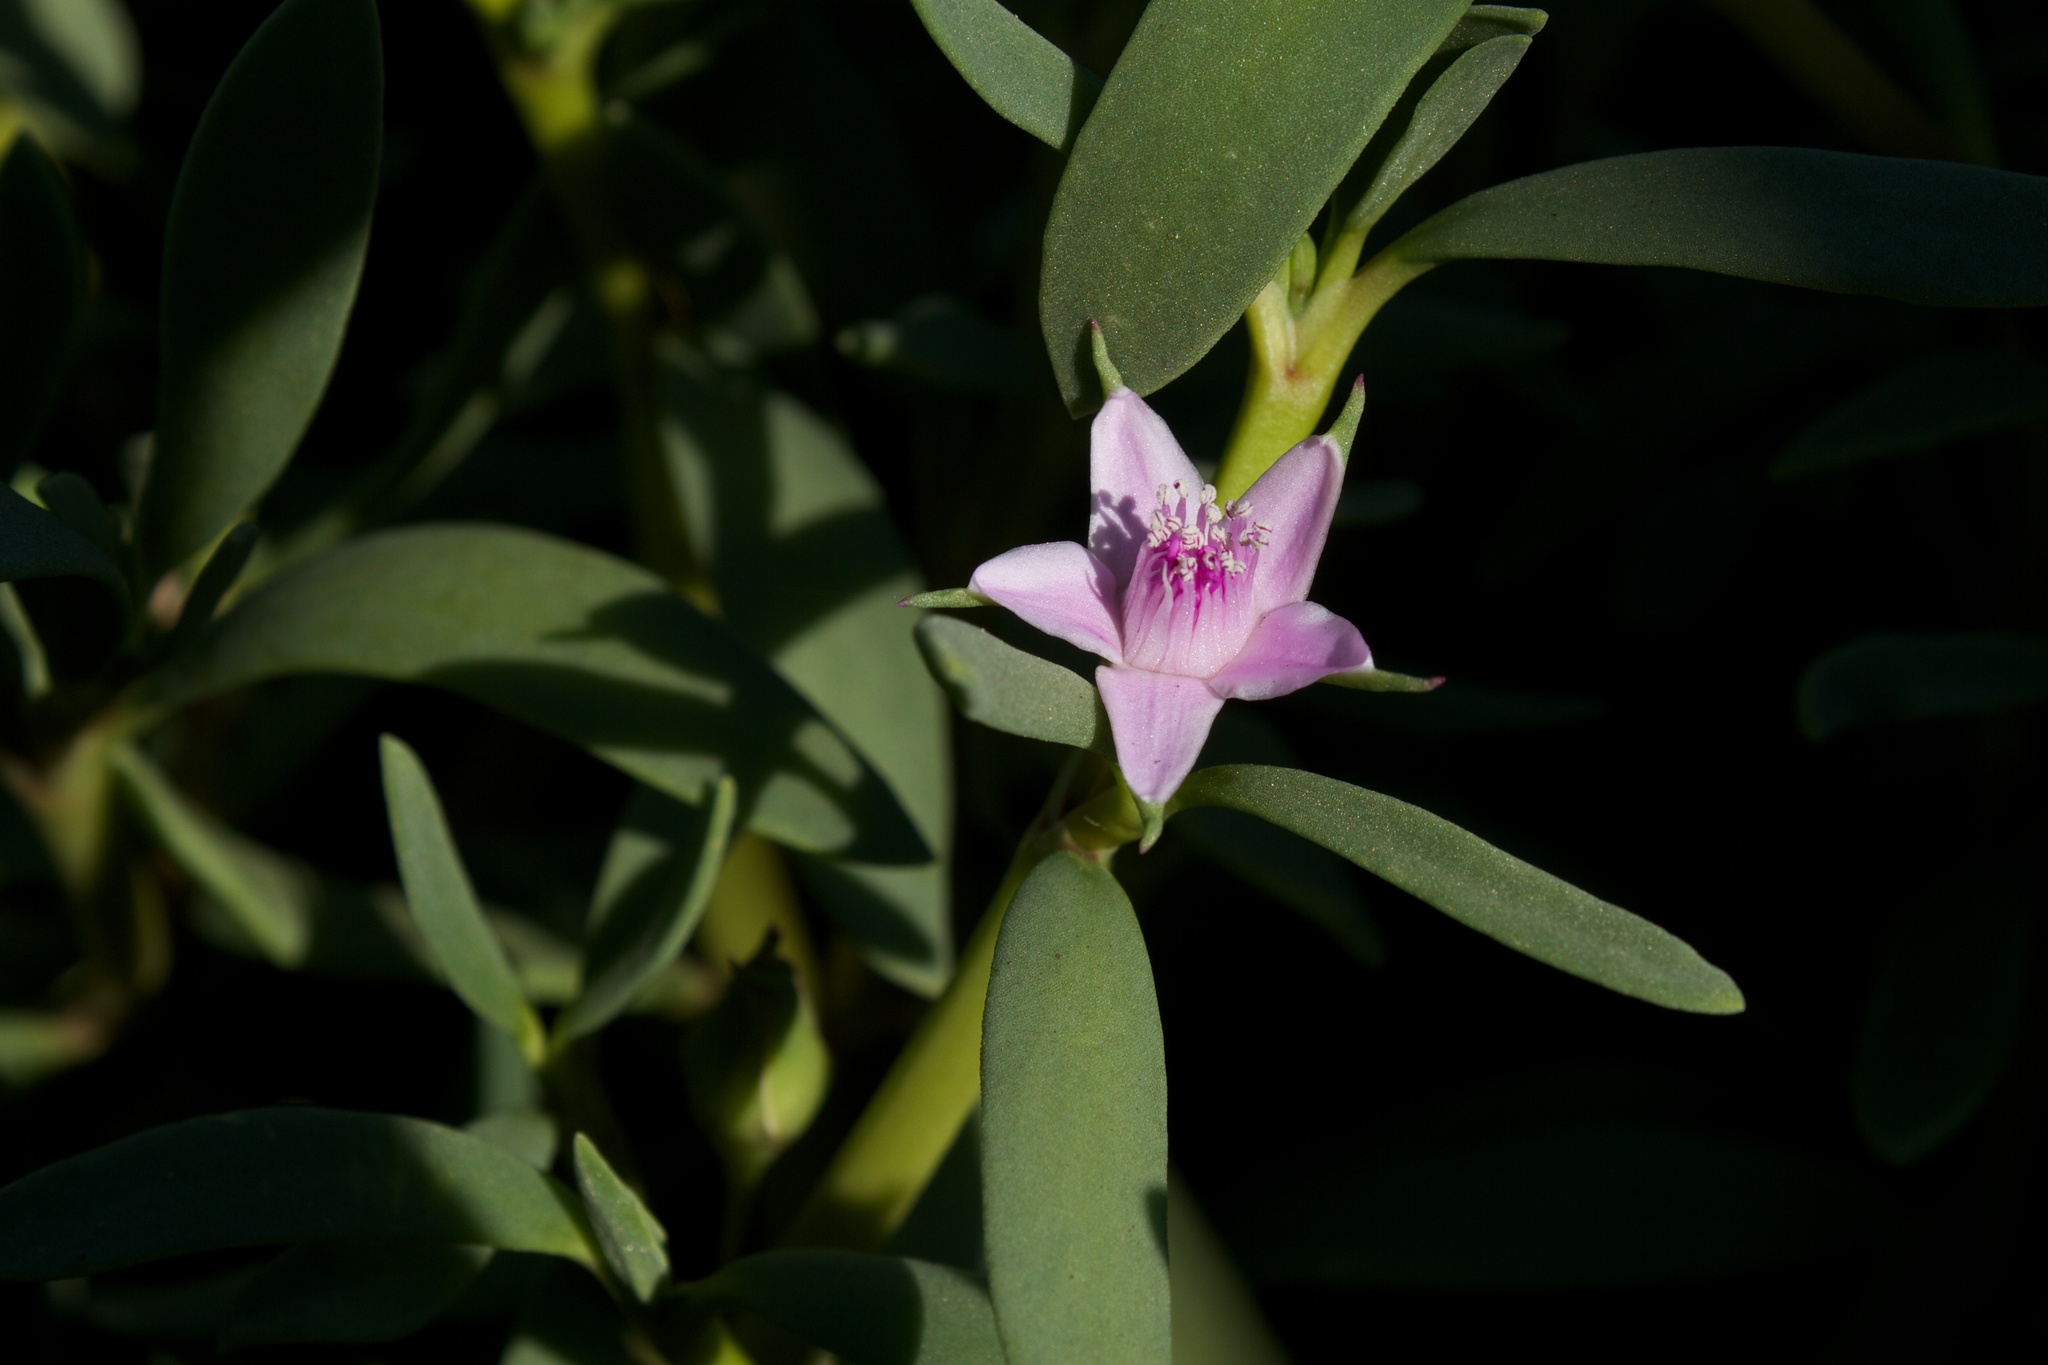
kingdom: Plantae
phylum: Tracheophyta
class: Magnoliopsida
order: Caryophyllales
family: Aizoaceae
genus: Sesuvium
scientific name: Sesuvium portulacastrum
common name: Sea-purslane
